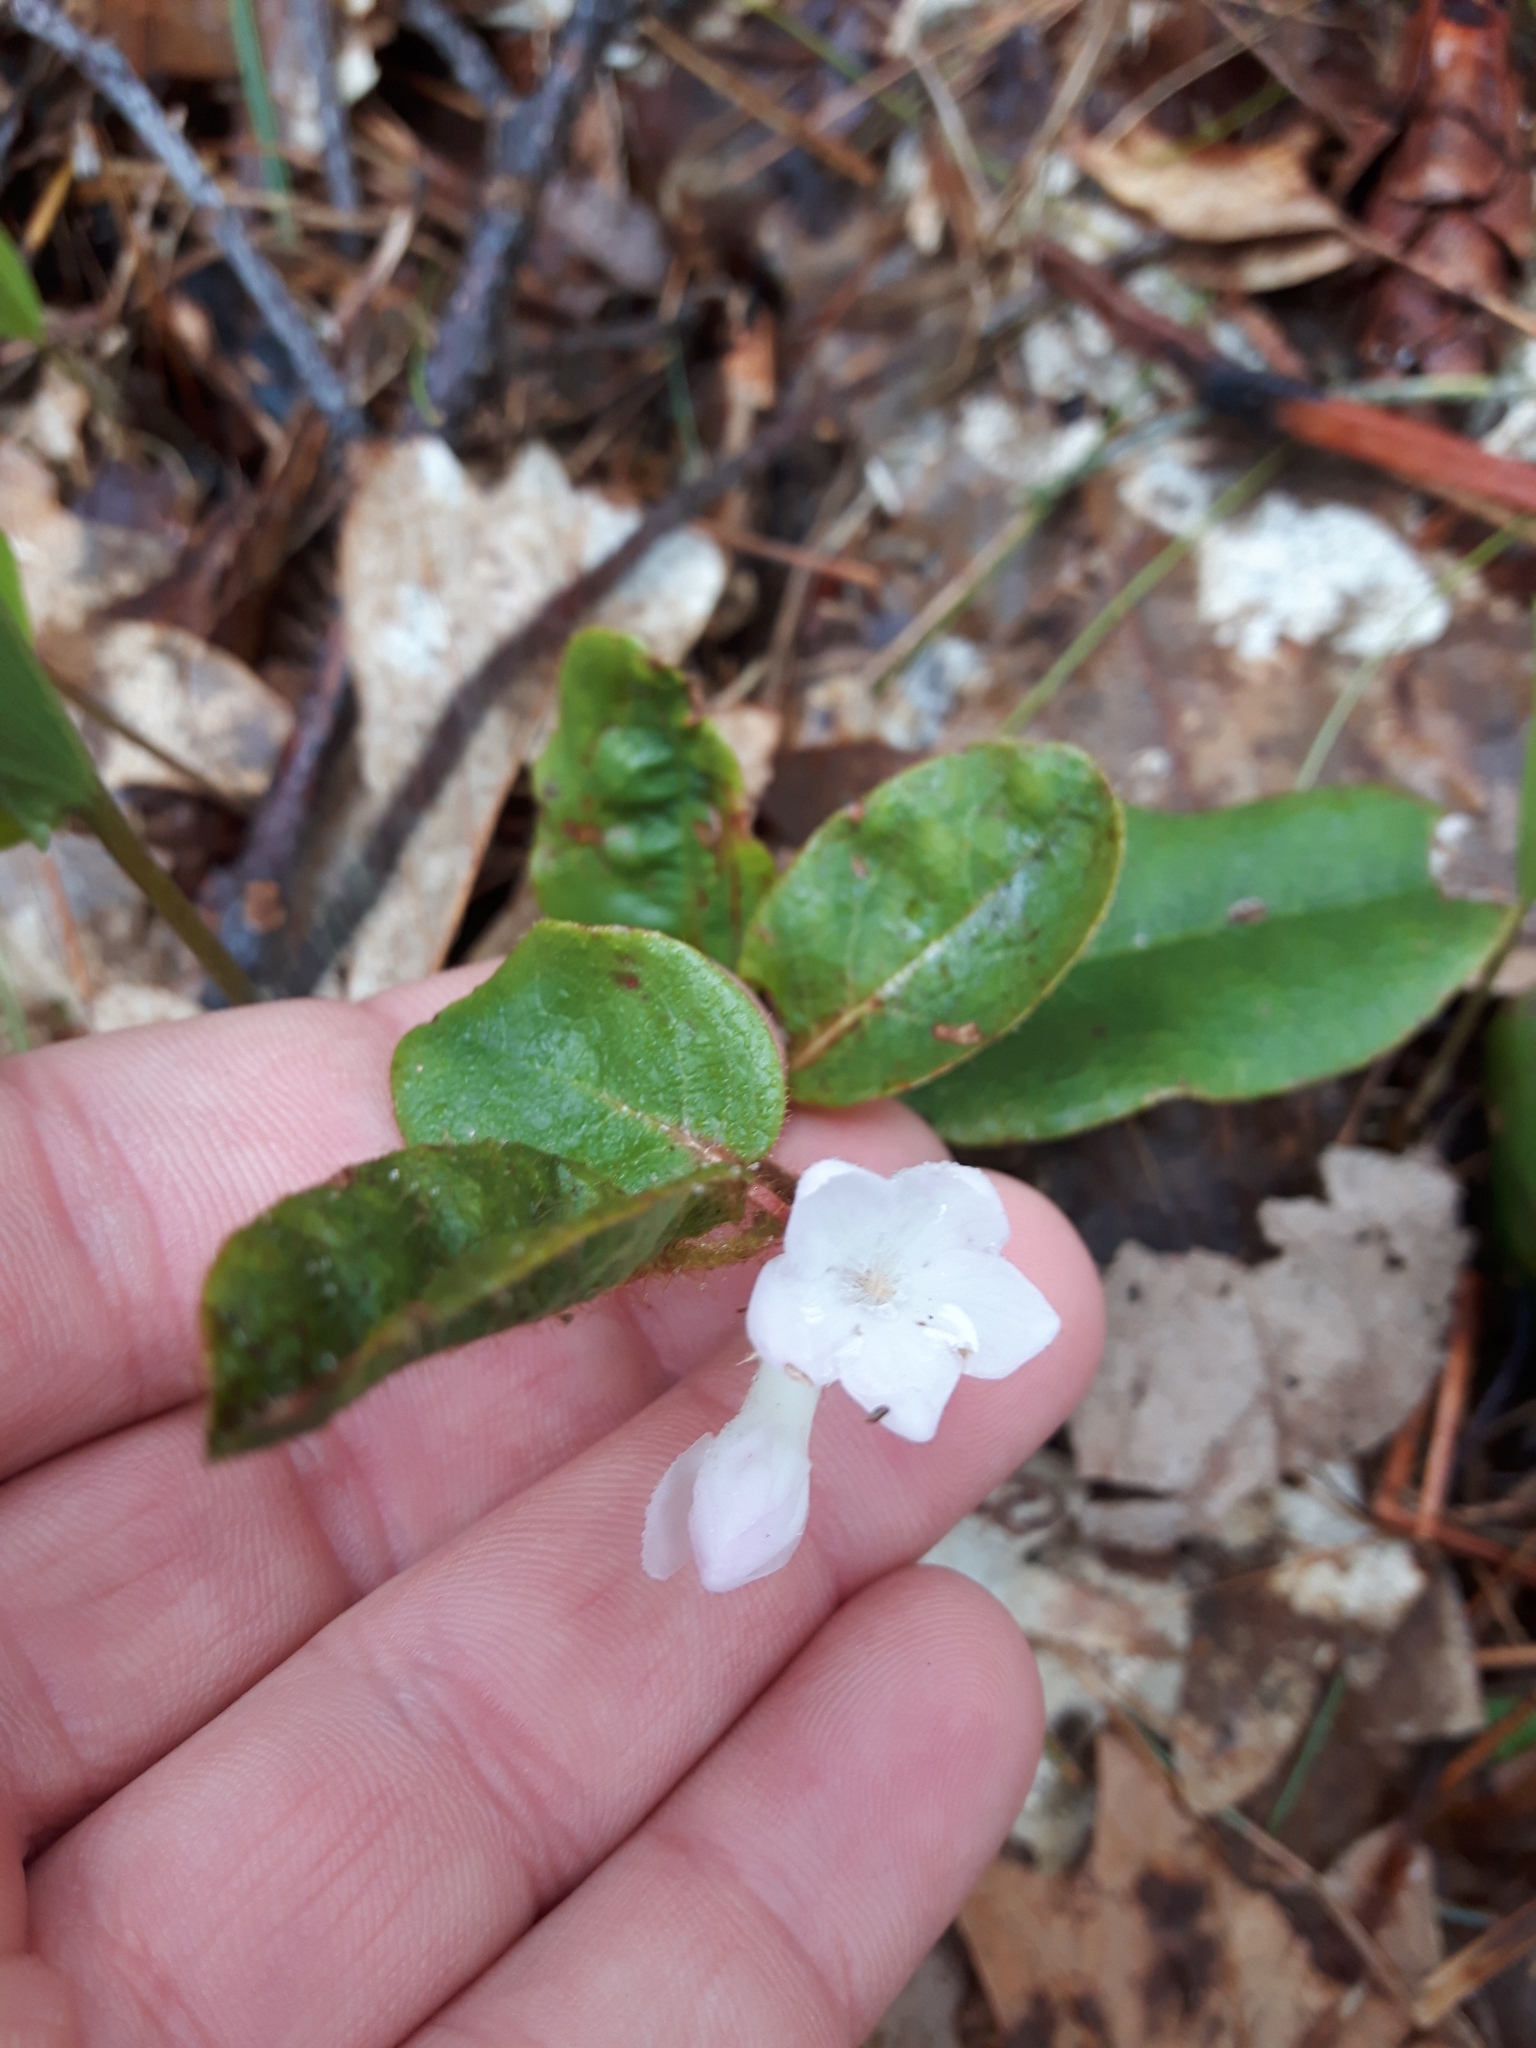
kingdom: Plantae
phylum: Tracheophyta
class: Magnoliopsida
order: Ericales
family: Ericaceae
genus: Epigaea
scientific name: Epigaea repens
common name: Gravelroot
